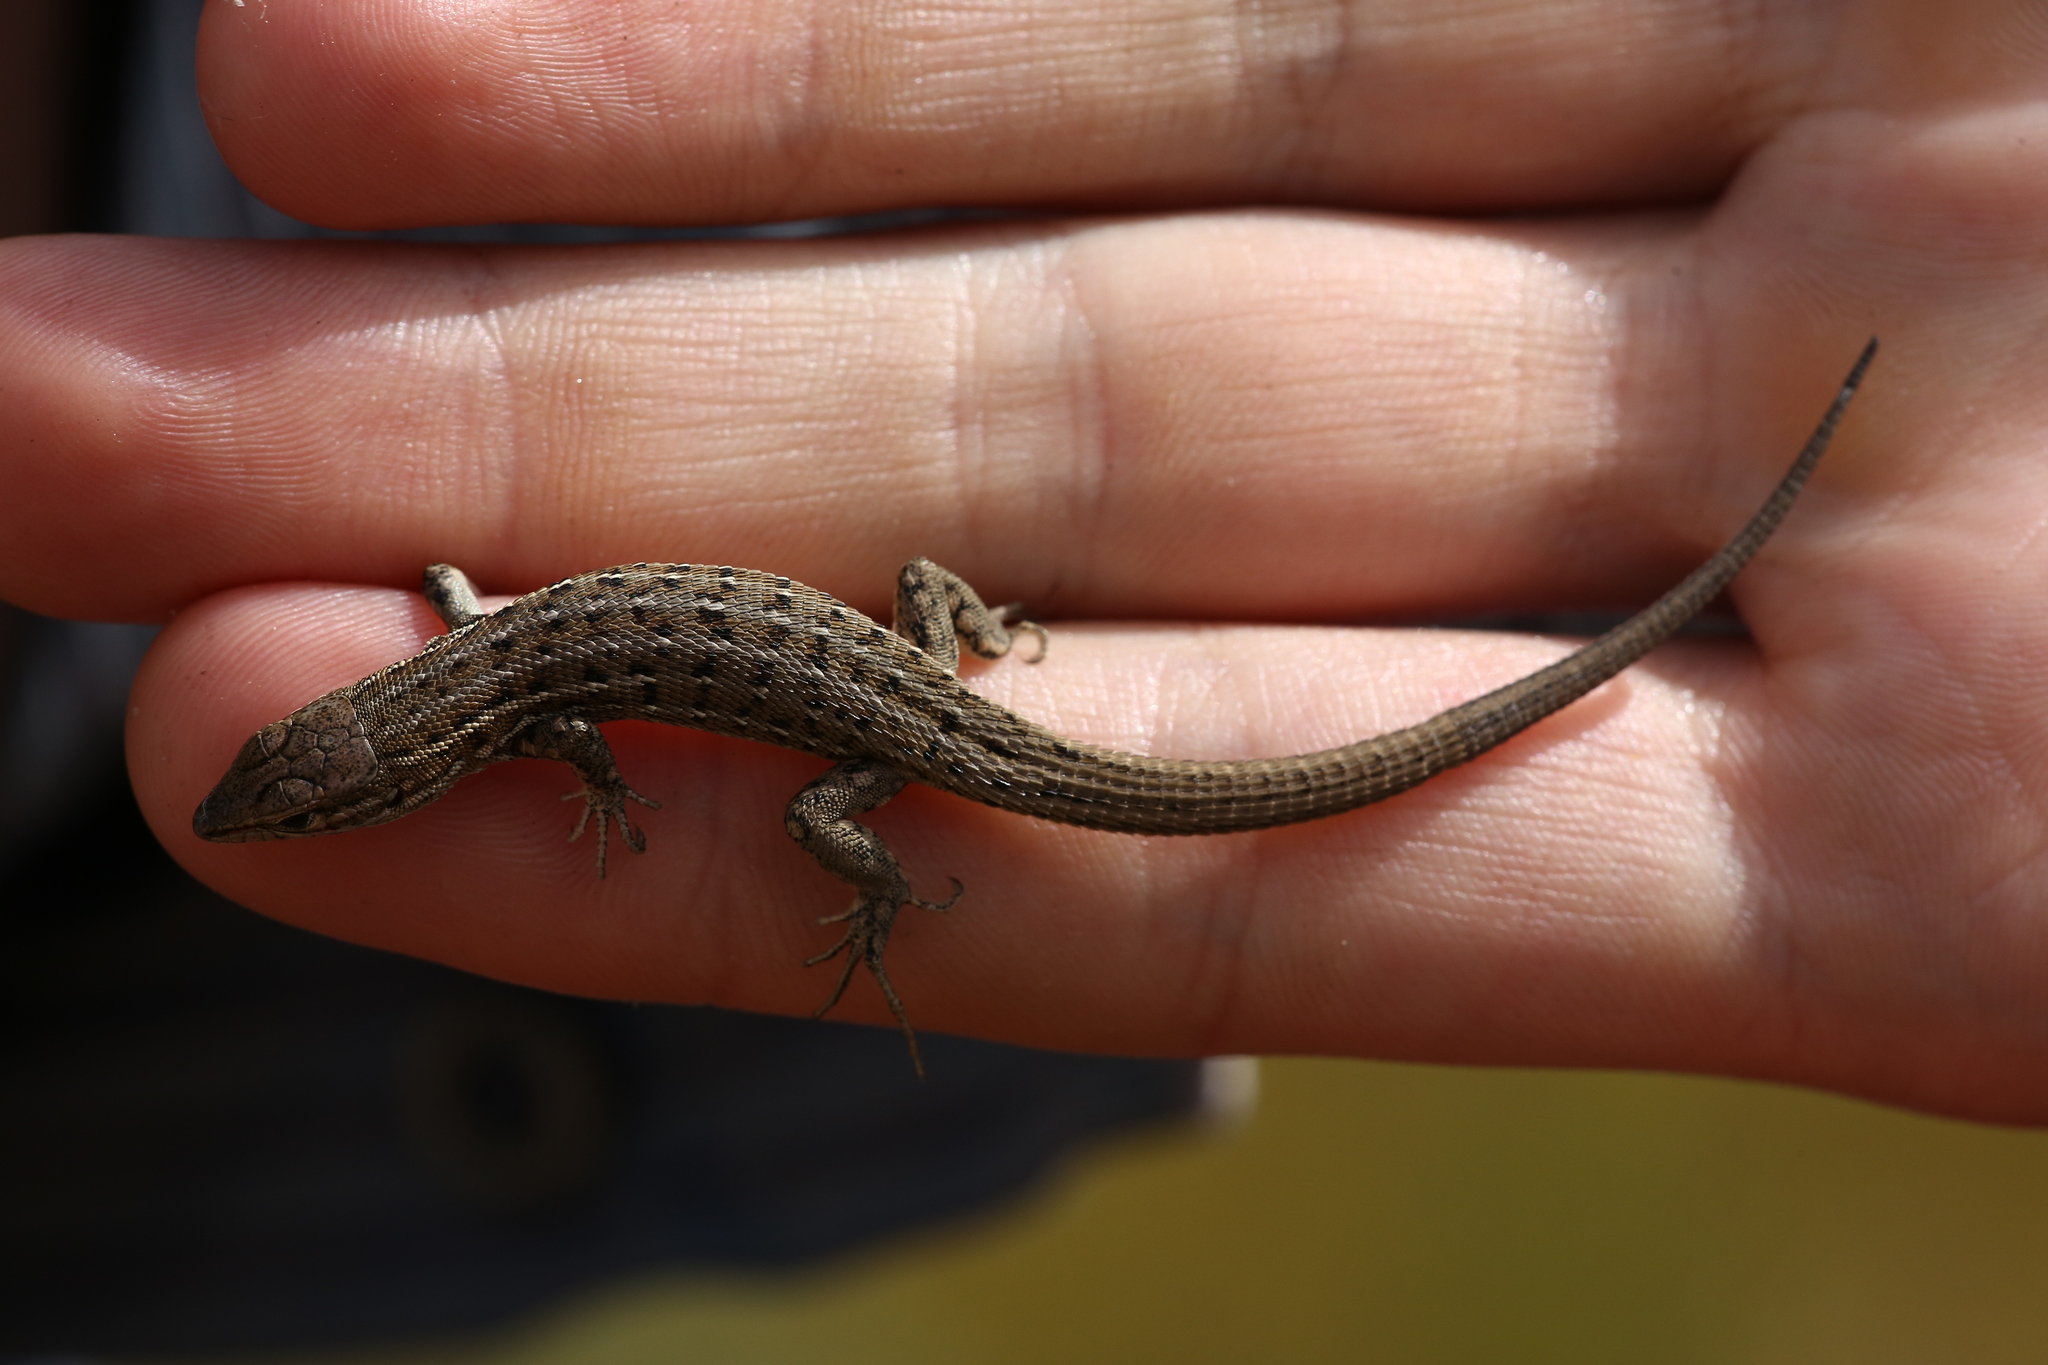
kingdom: Animalia
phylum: Chordata
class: Squamata
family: Lacertidae
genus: Psammodromus
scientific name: Psammodromus edwarsianus
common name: East iberian psammodromus
